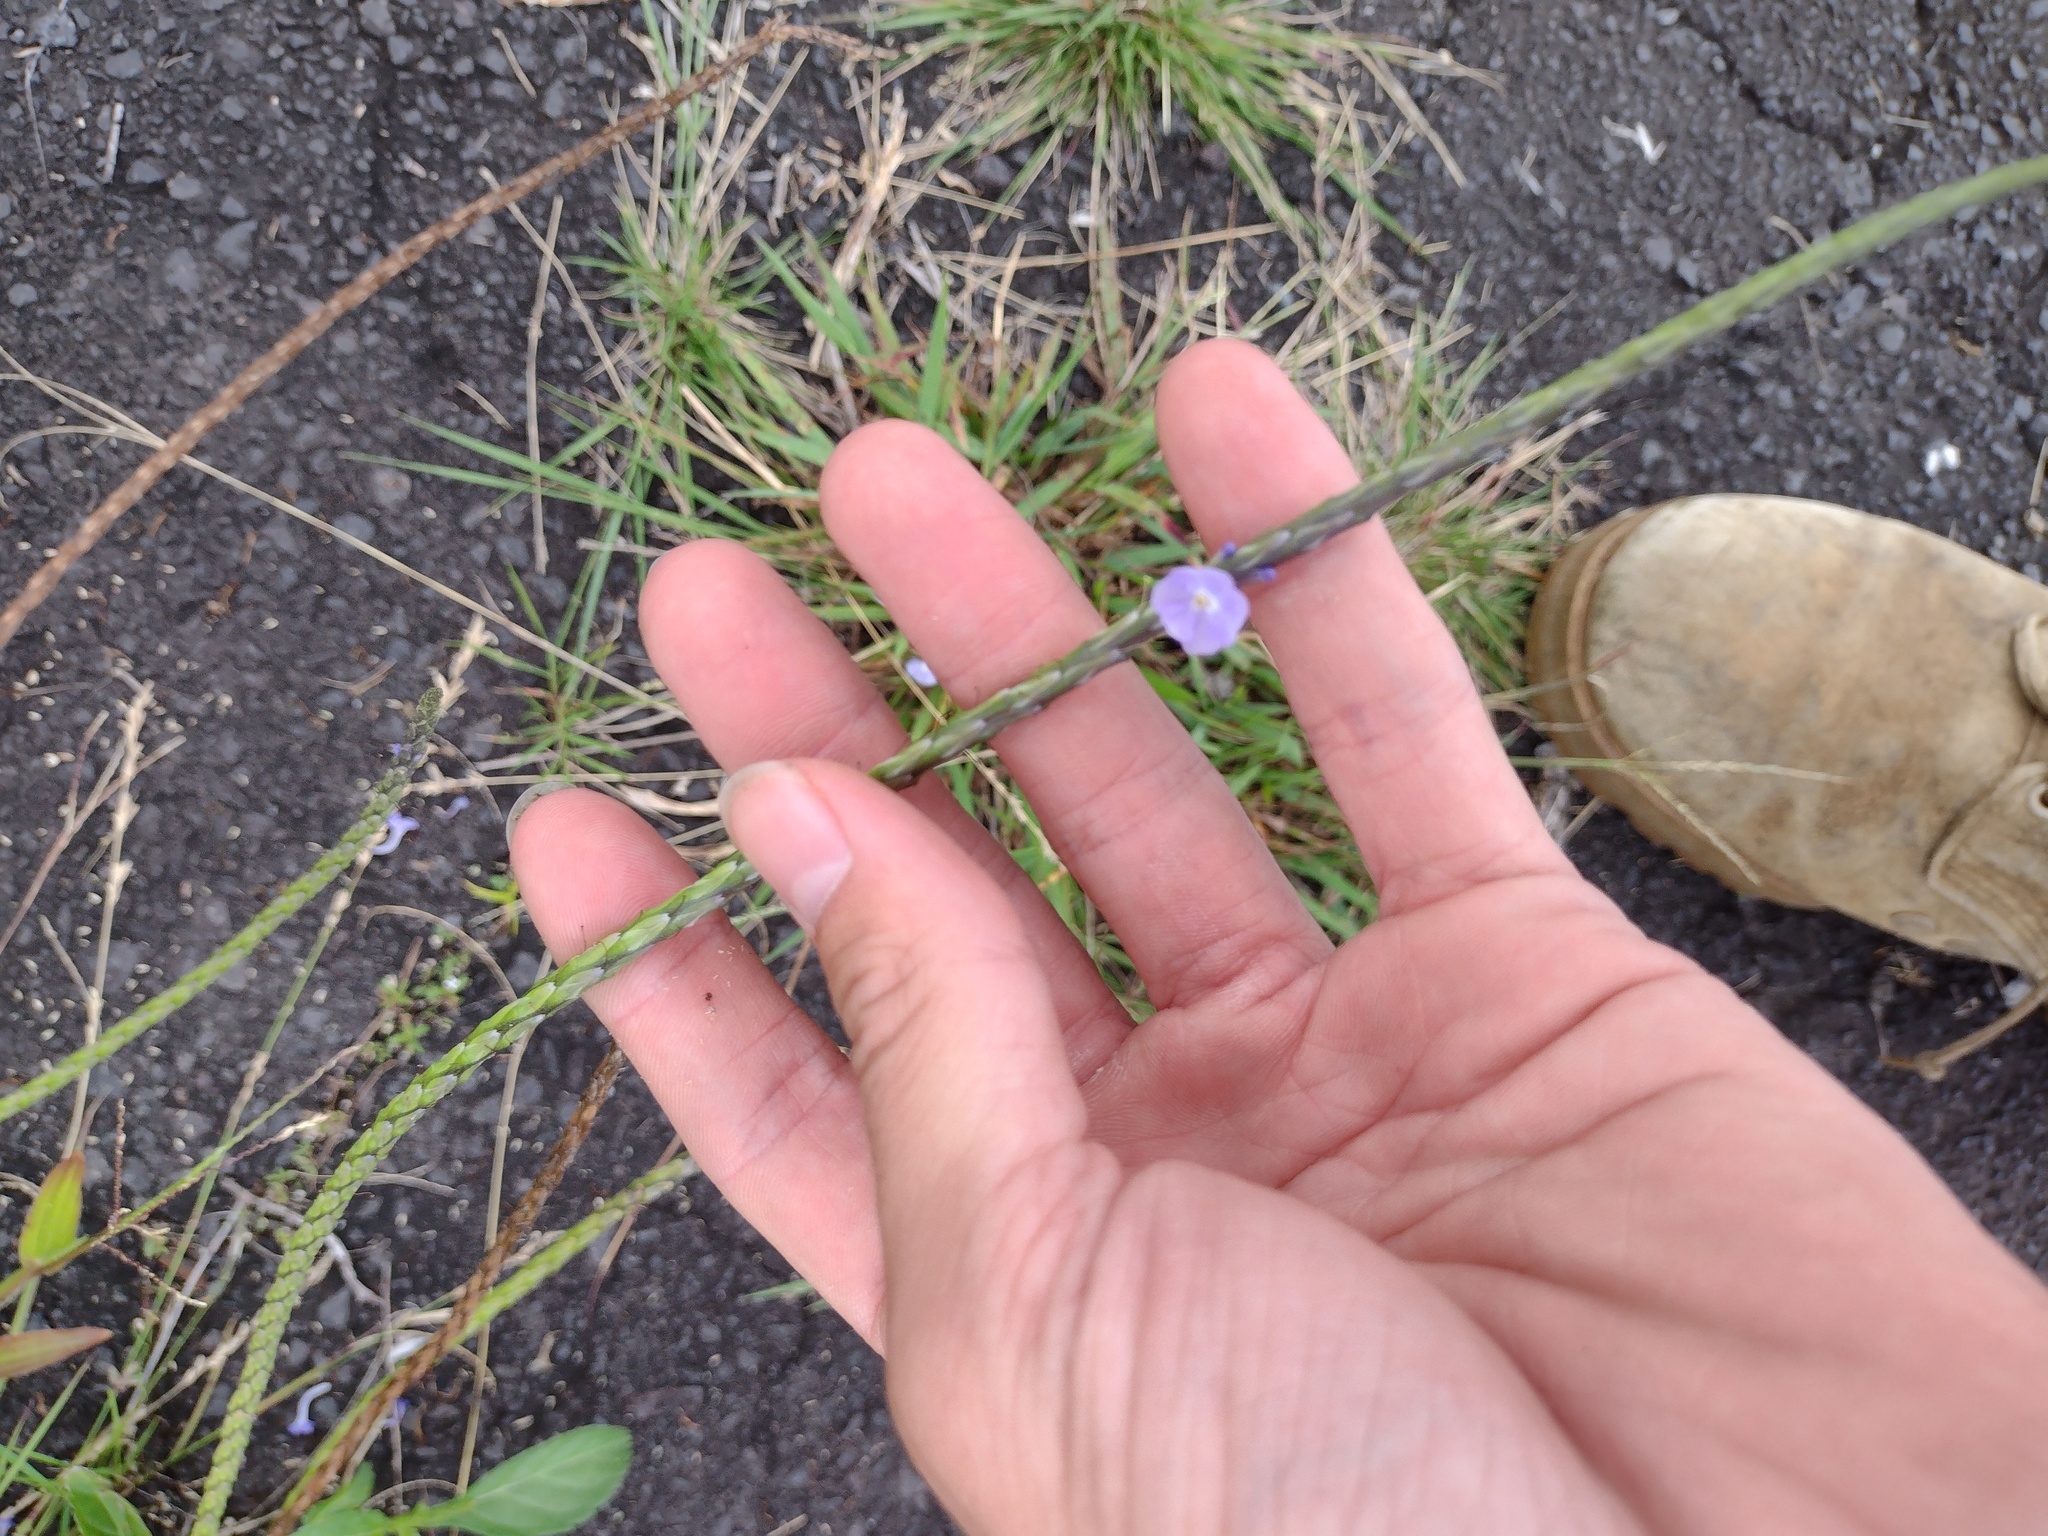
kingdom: Plantae
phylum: Tracheophyta
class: Magnoliopsida
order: Lamiales
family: Verbenaceae
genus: Stachytarpheta
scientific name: Stachytarpheta jamaicensis
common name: Light-blue snakeweed
